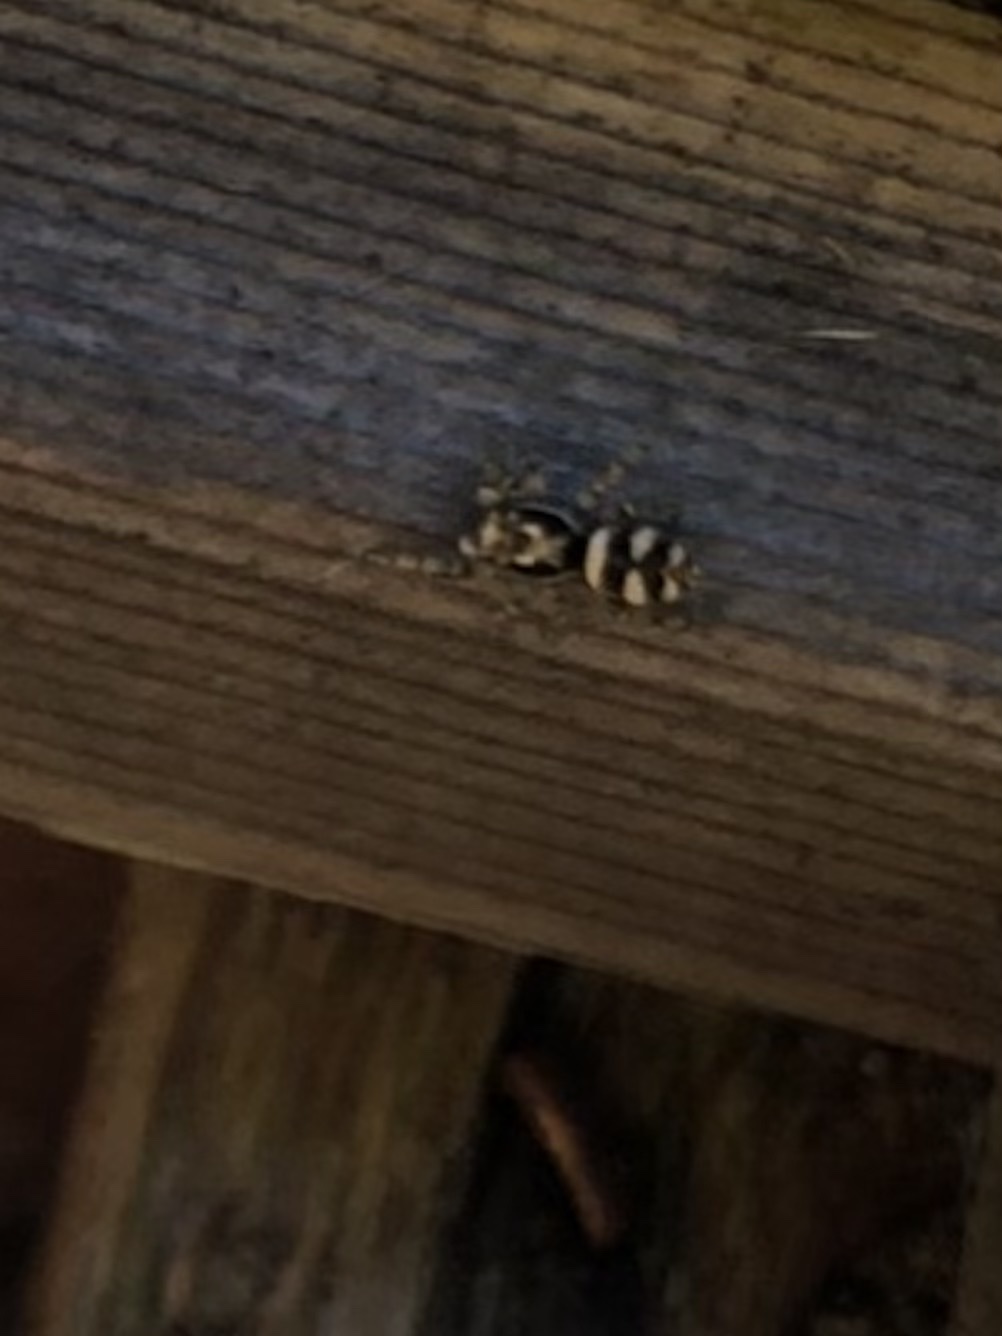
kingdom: Animalia
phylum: Arthropoda
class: Arachnida
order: Araneae
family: Salticidae
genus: Salticus
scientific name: Salticus scenicus
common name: Zebra jumper
